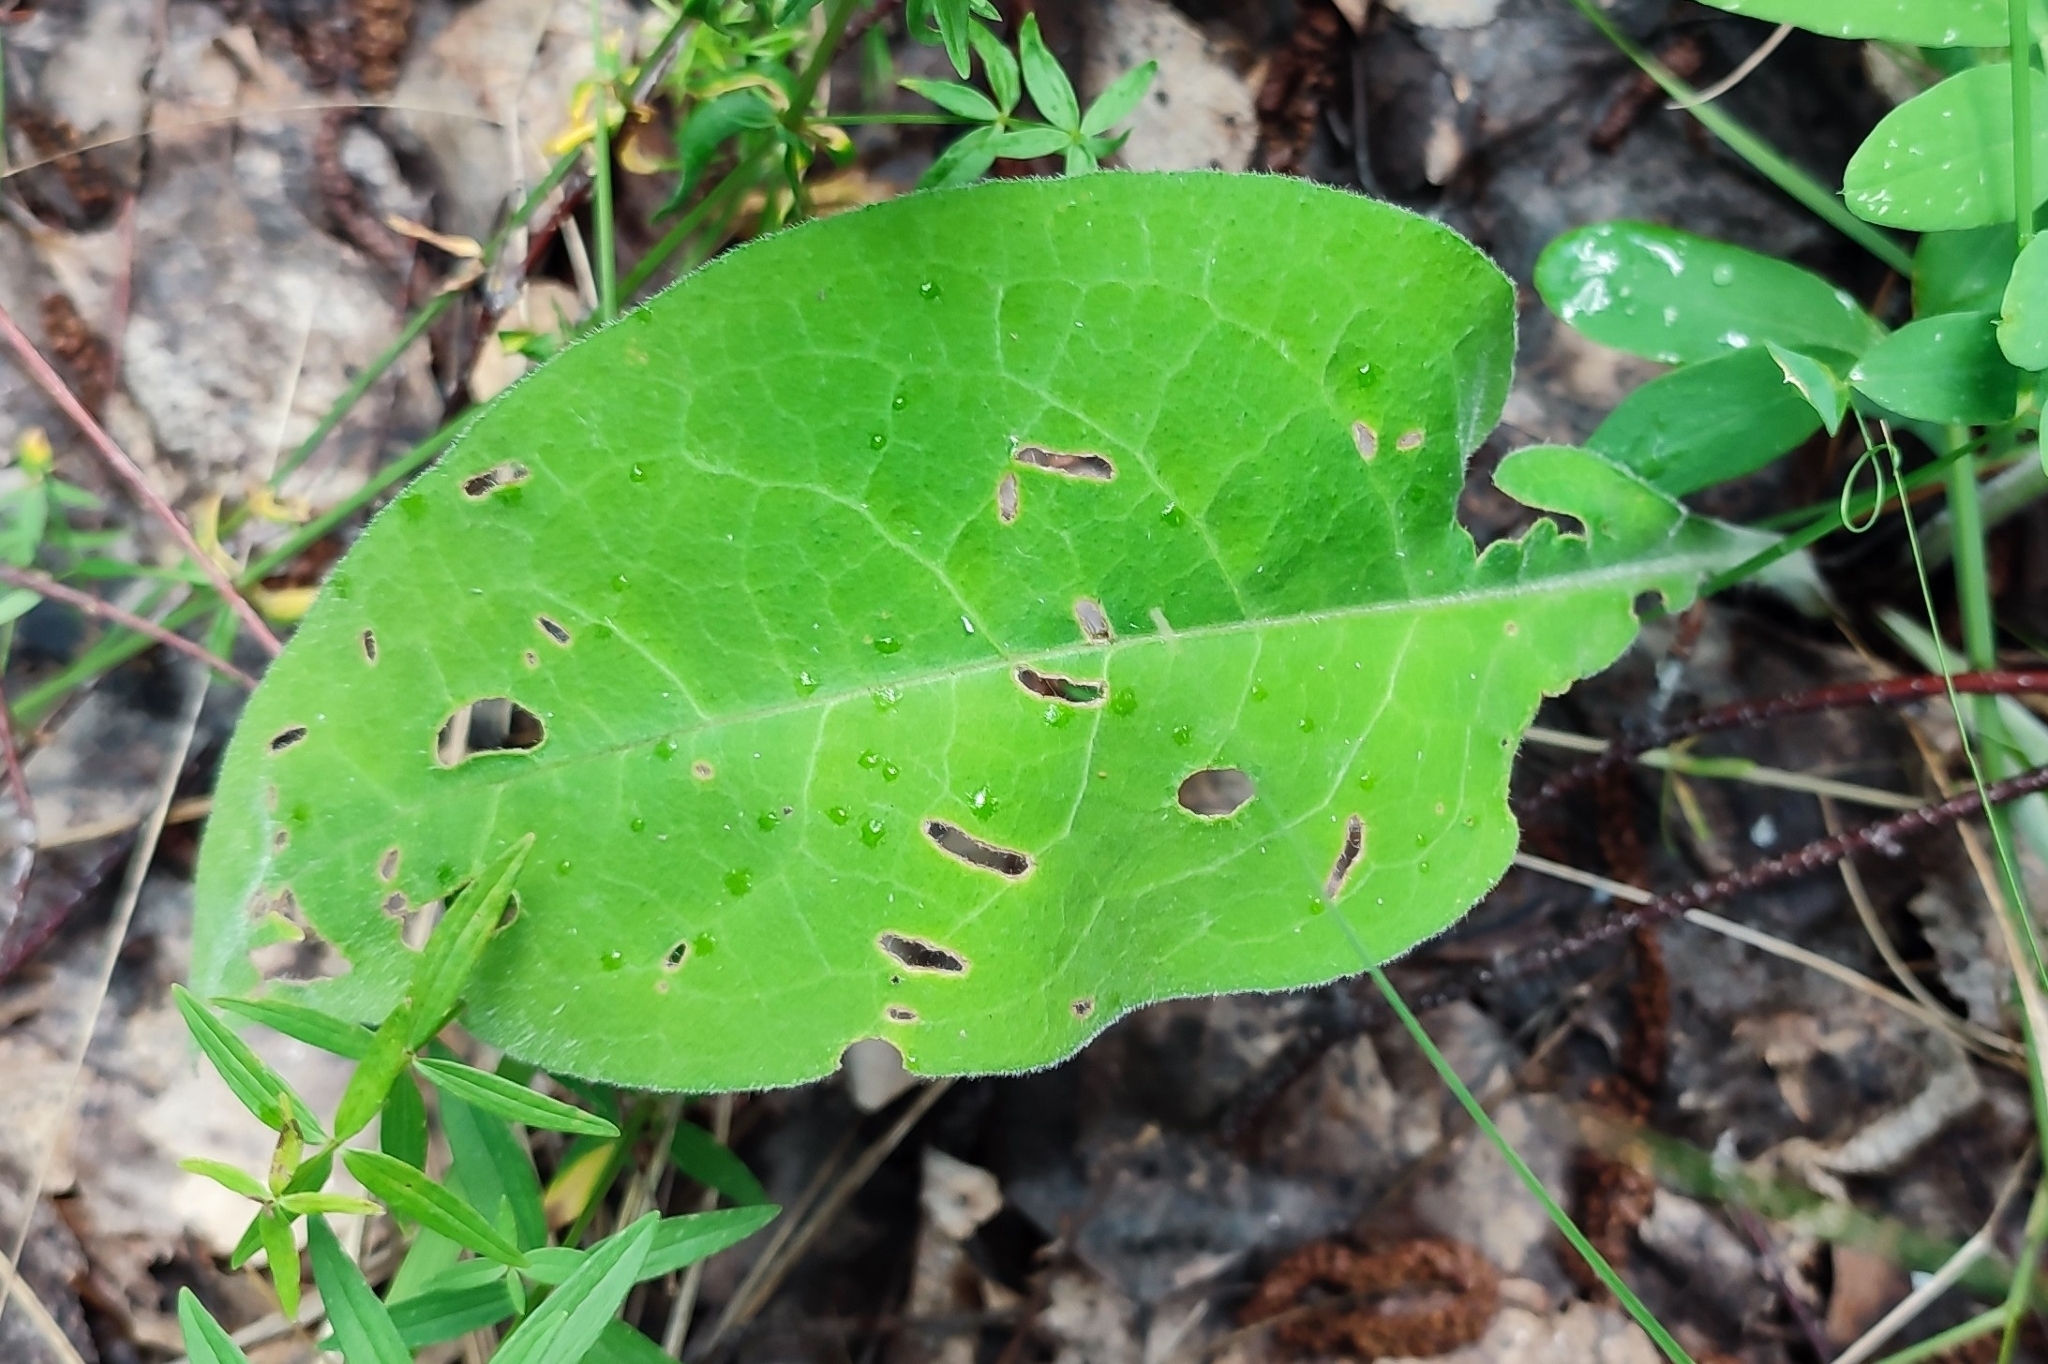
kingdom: Plantae
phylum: Tracheophyta
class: Magnoliopsida
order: Boraginales
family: Boraginaceae
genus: Pulmonaria
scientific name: Pulmonaria mollis
